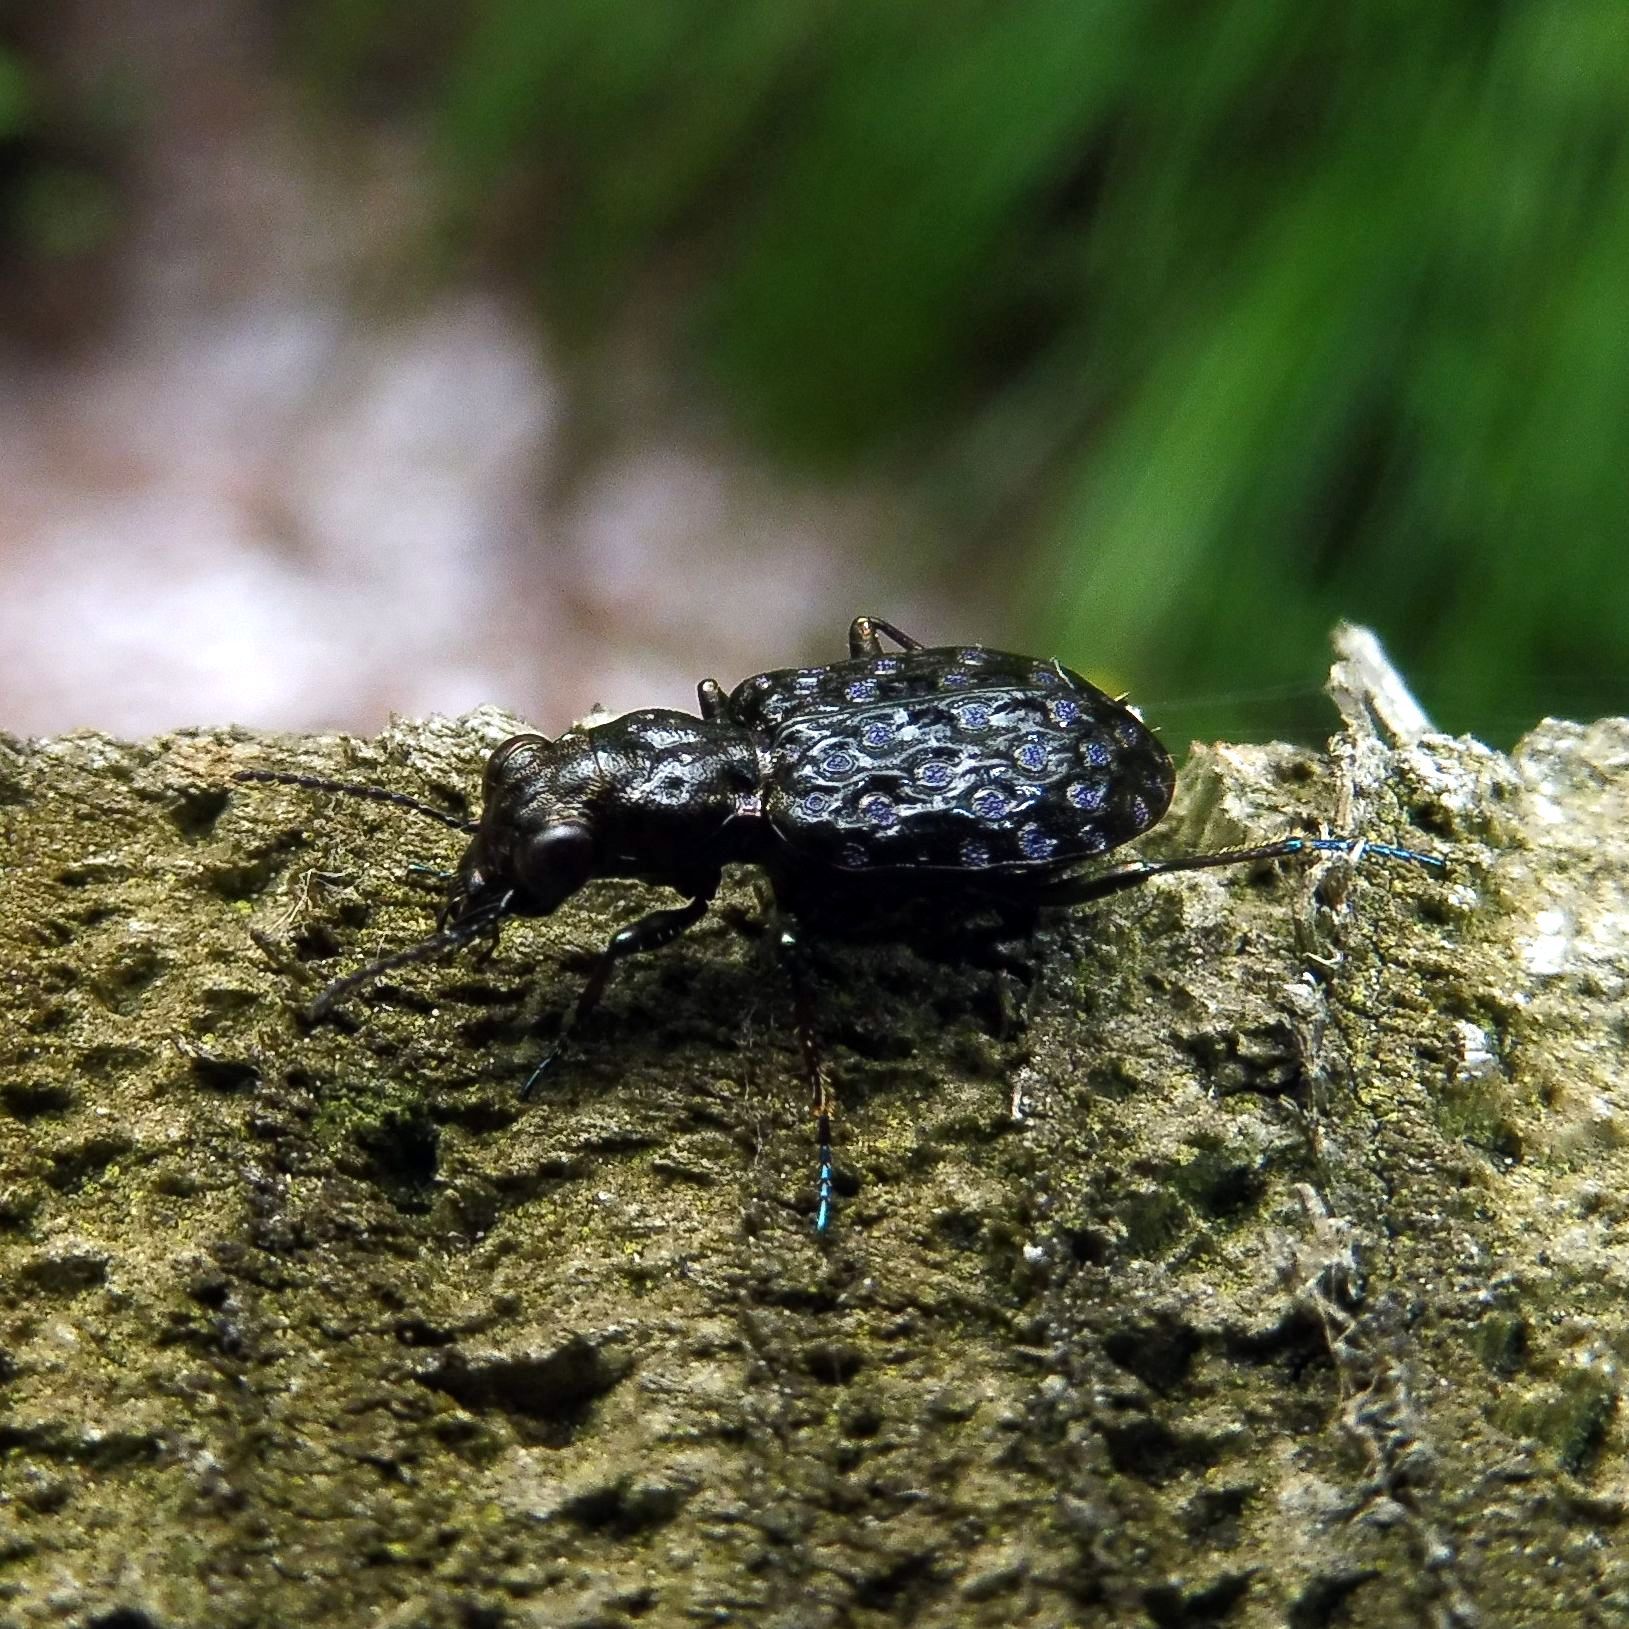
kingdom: Animalia
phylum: Arthropoda
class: Insecta
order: Coleoptera
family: Carabidae
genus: Elaphrus
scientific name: Elaphrus cupreus
